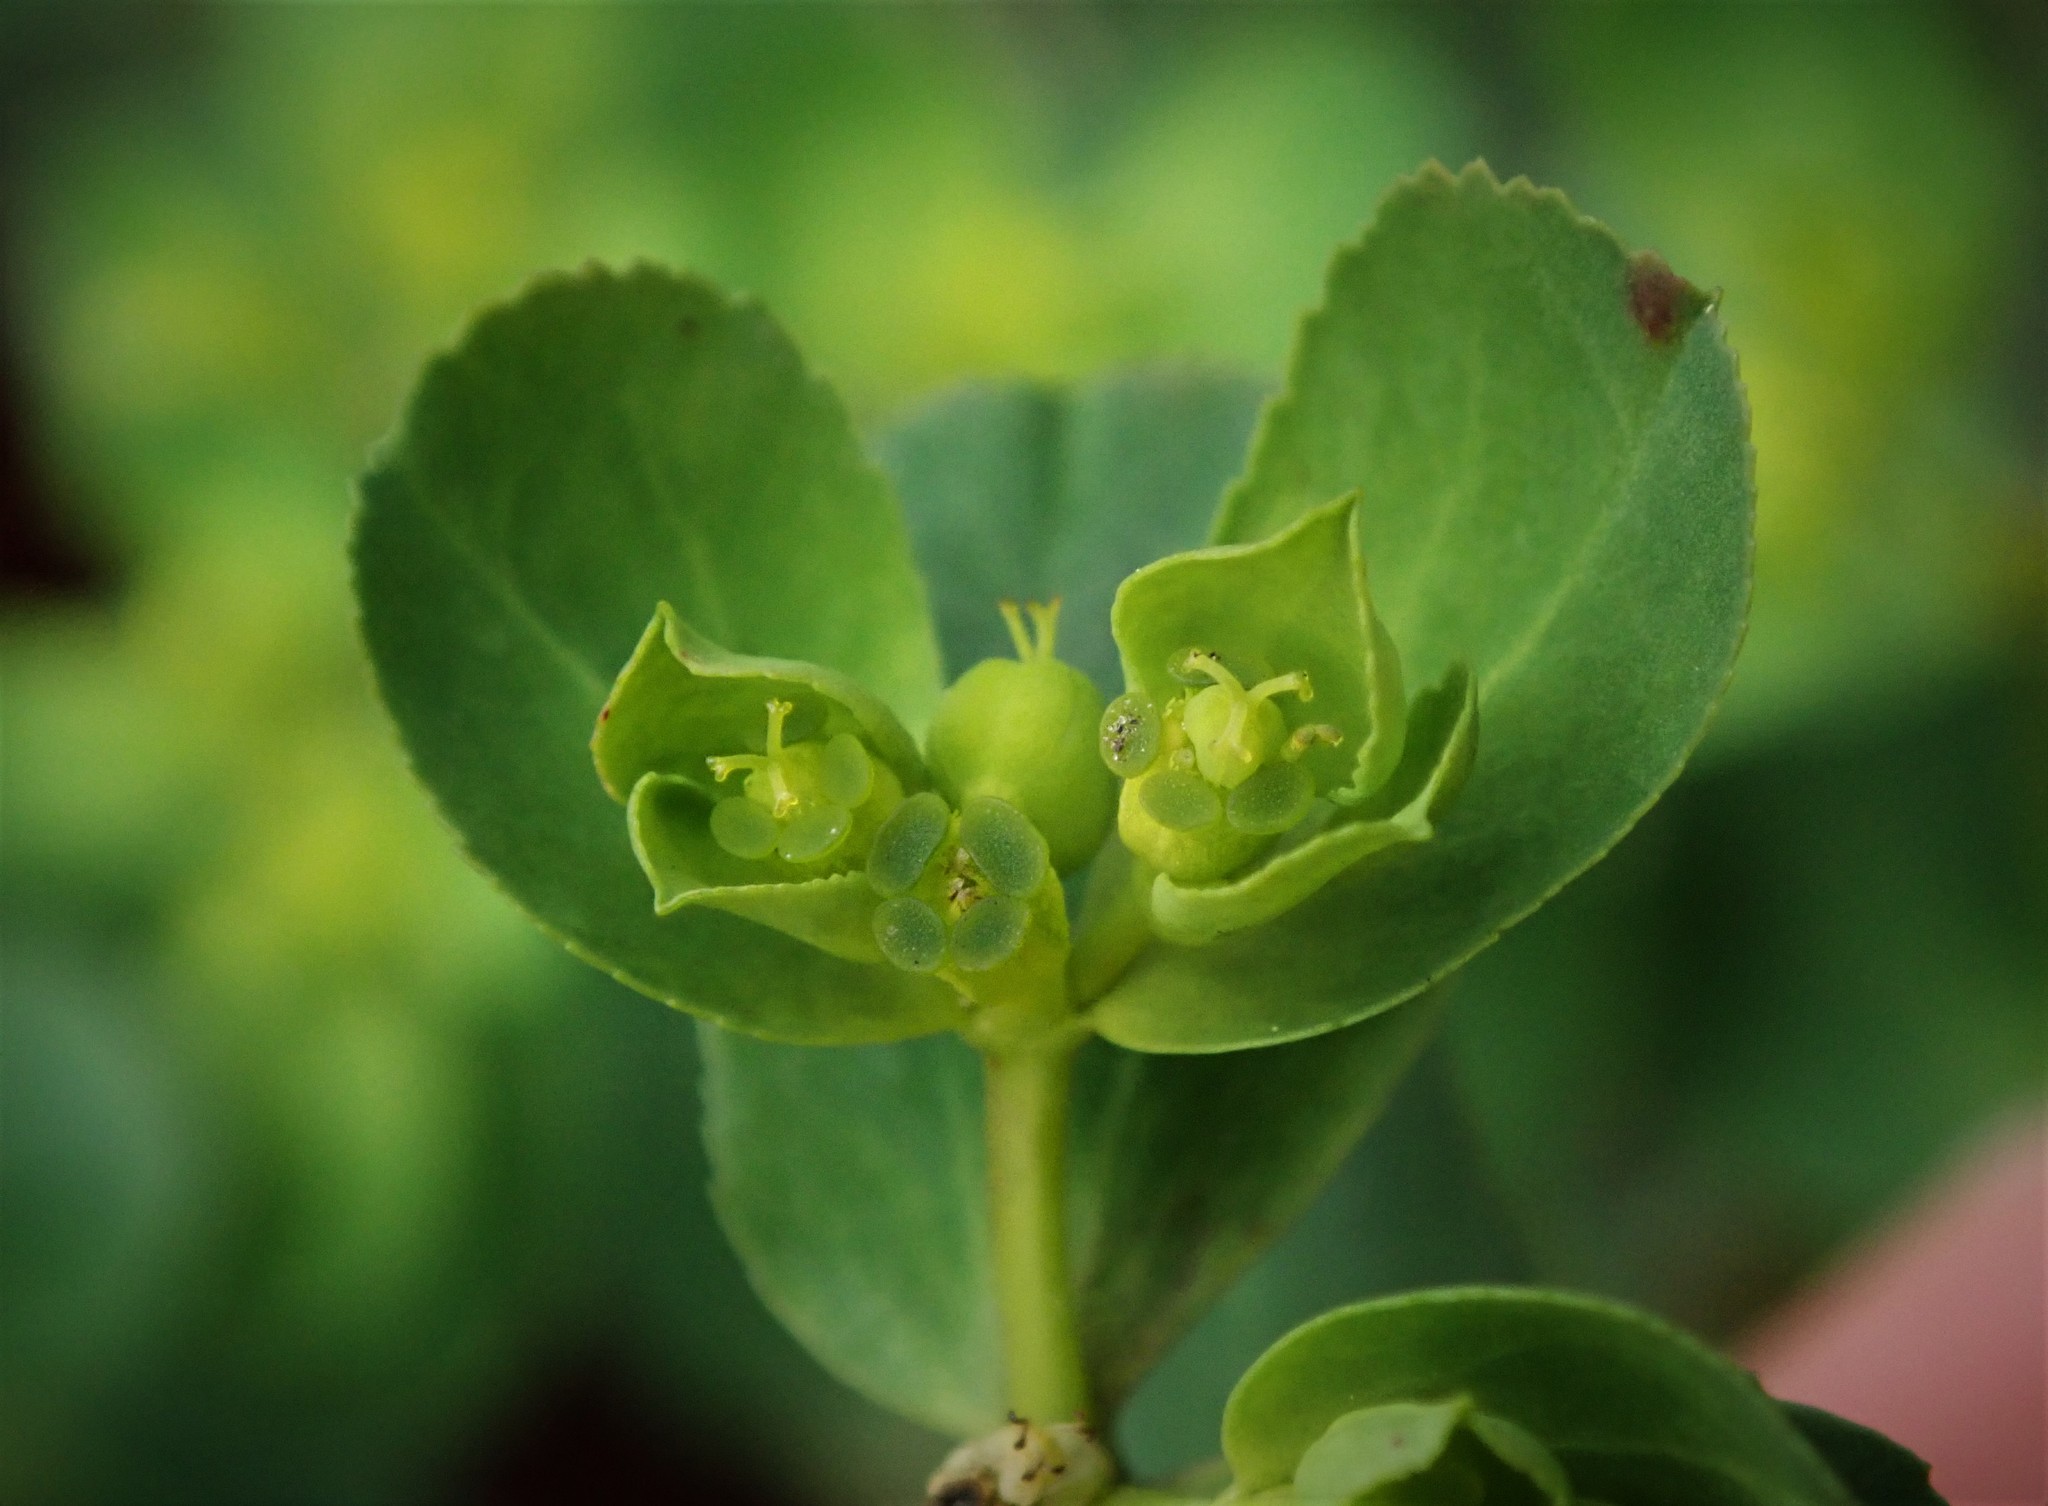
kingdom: Plantae
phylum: Tracheophyta
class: Magnoliopsida
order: Malpighiales
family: Euphorbiaceae
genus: Euphorbia
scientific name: Euphorbia helioscopia
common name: Sun spurge
